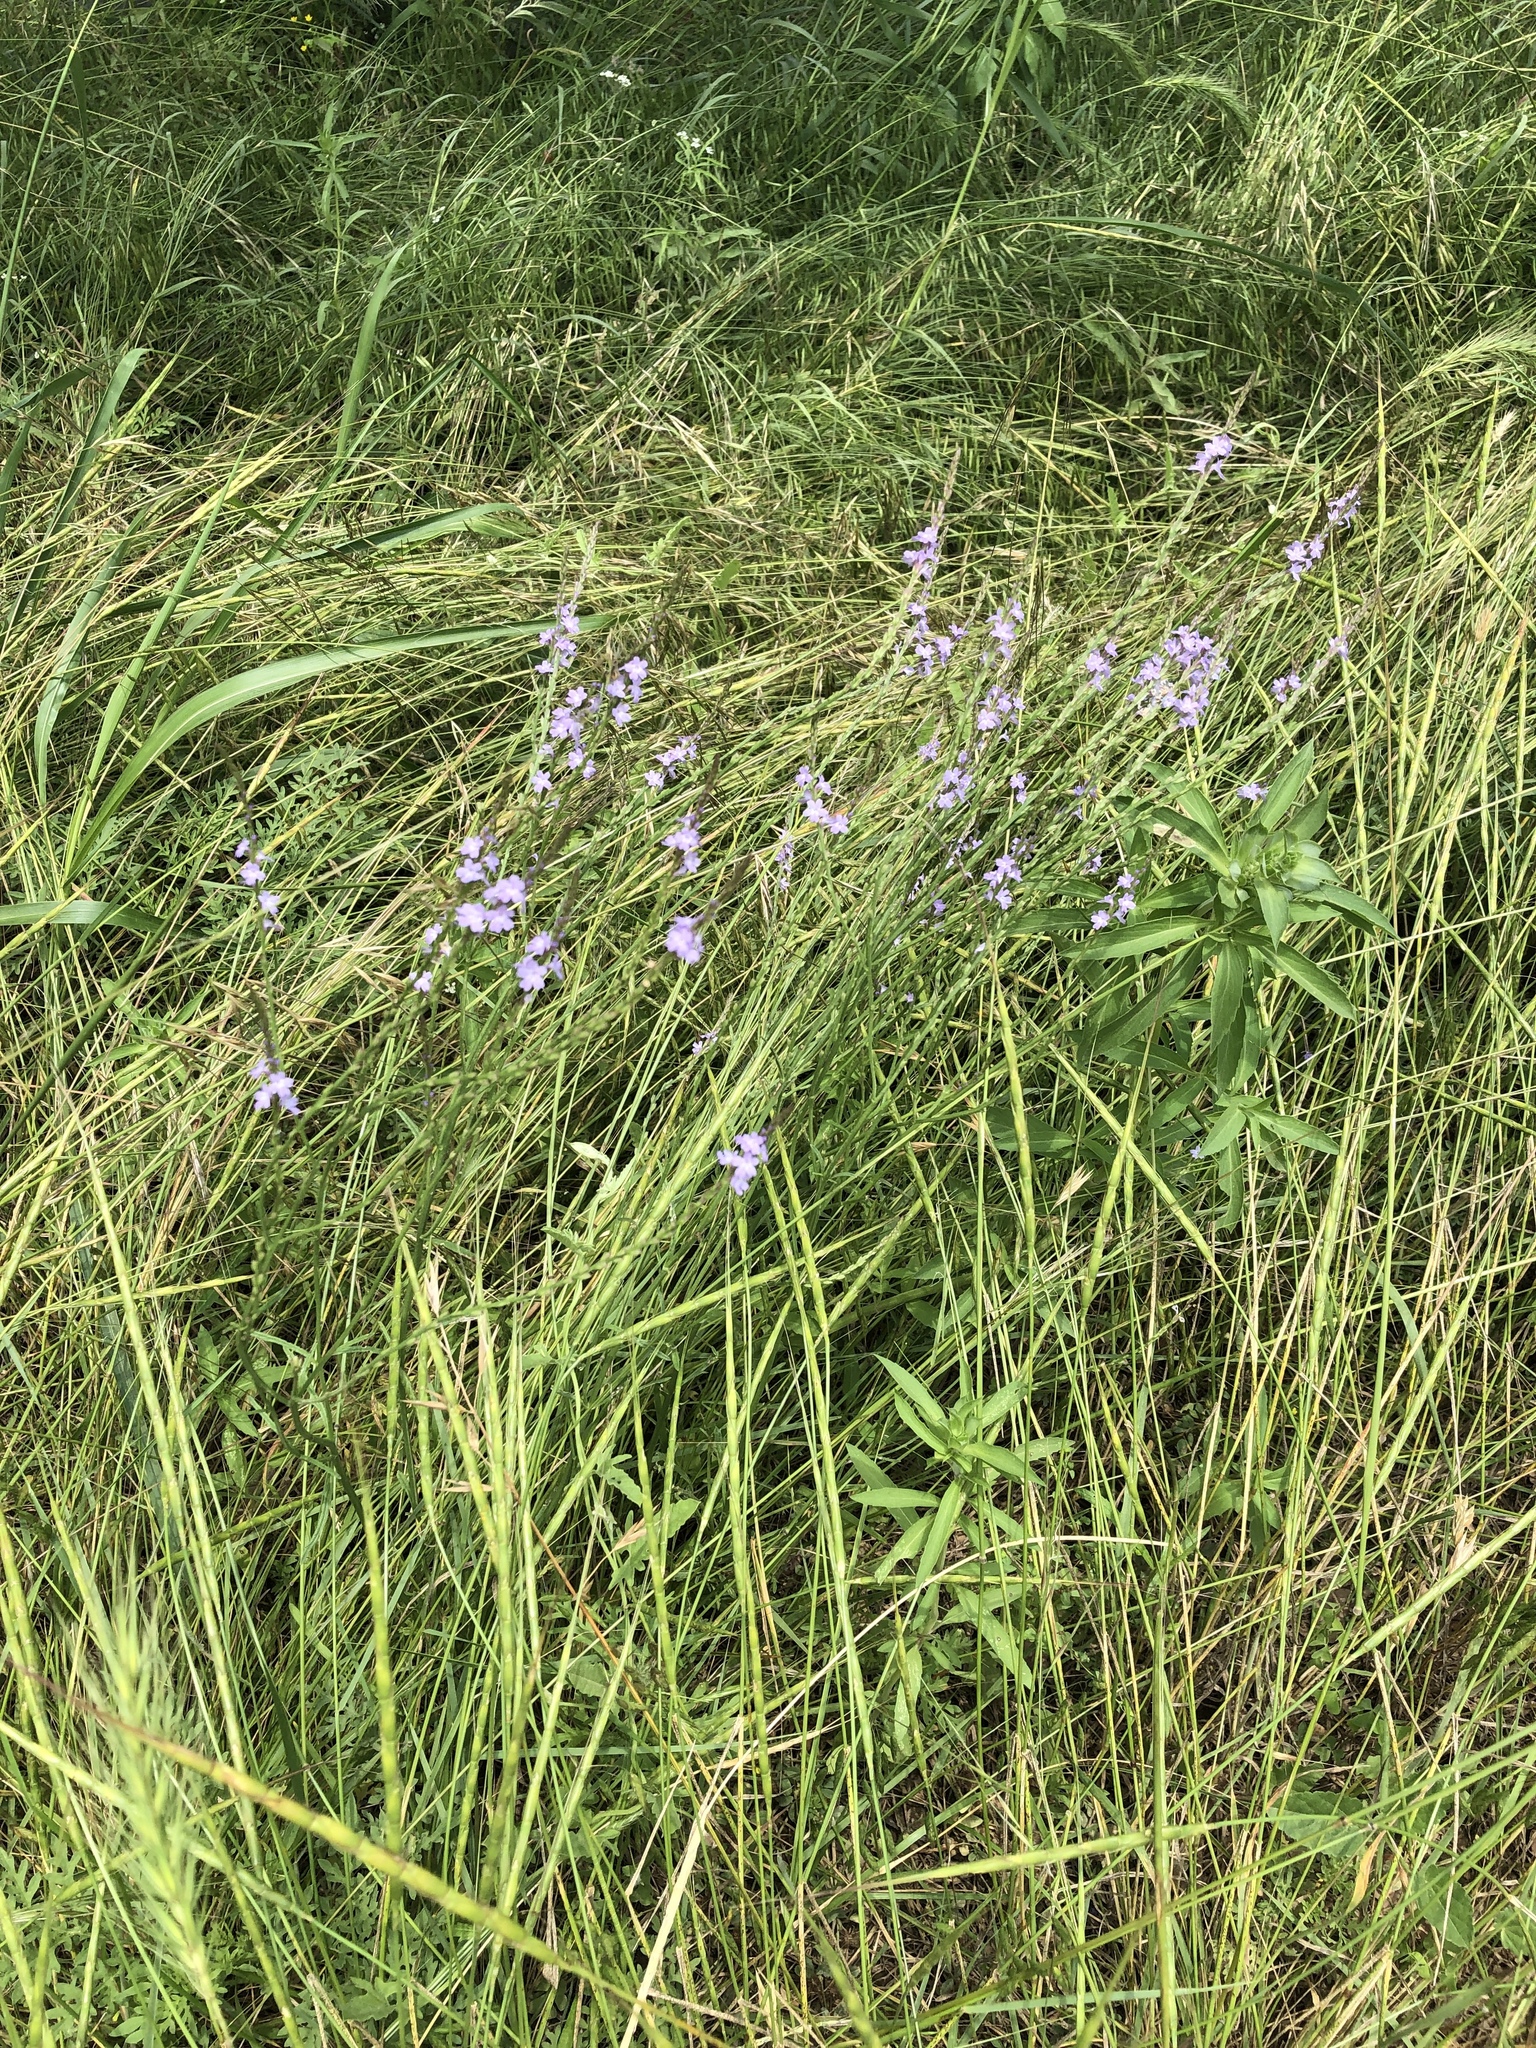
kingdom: Plantae
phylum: Tracheophyta
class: Magnoliopsida
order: Lamiales
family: Verbenaceae
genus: Verbena
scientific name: Verbena halei
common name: Texas vervain
